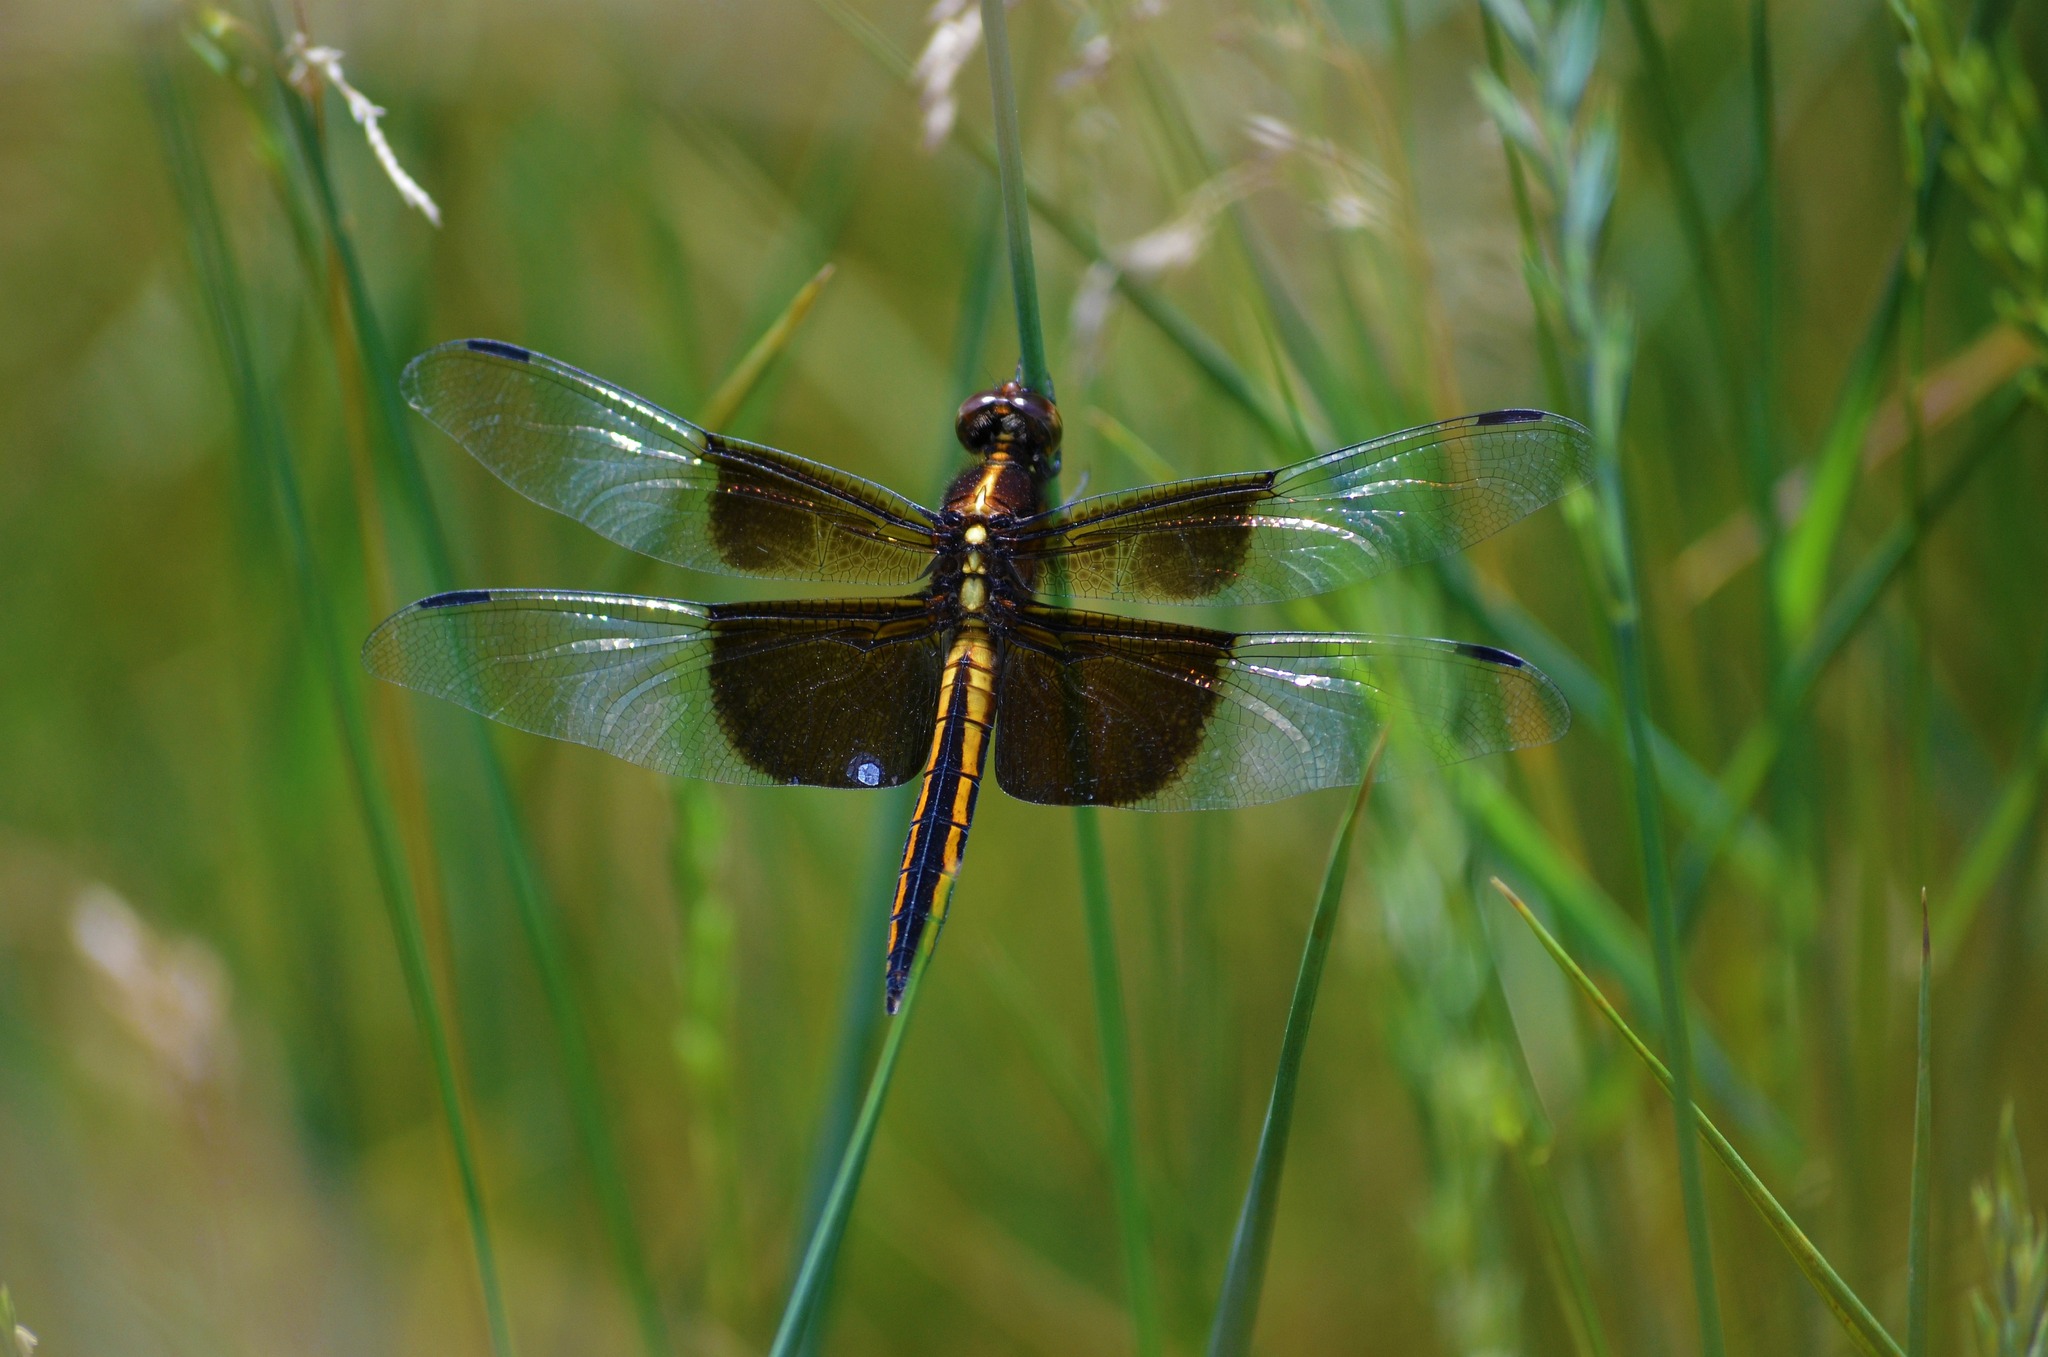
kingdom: Animalia
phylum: Arthropoda
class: Insecta
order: Odonata
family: Libellulidae
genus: Libellula
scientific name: Libellula luctuosa
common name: Widow skimmer
